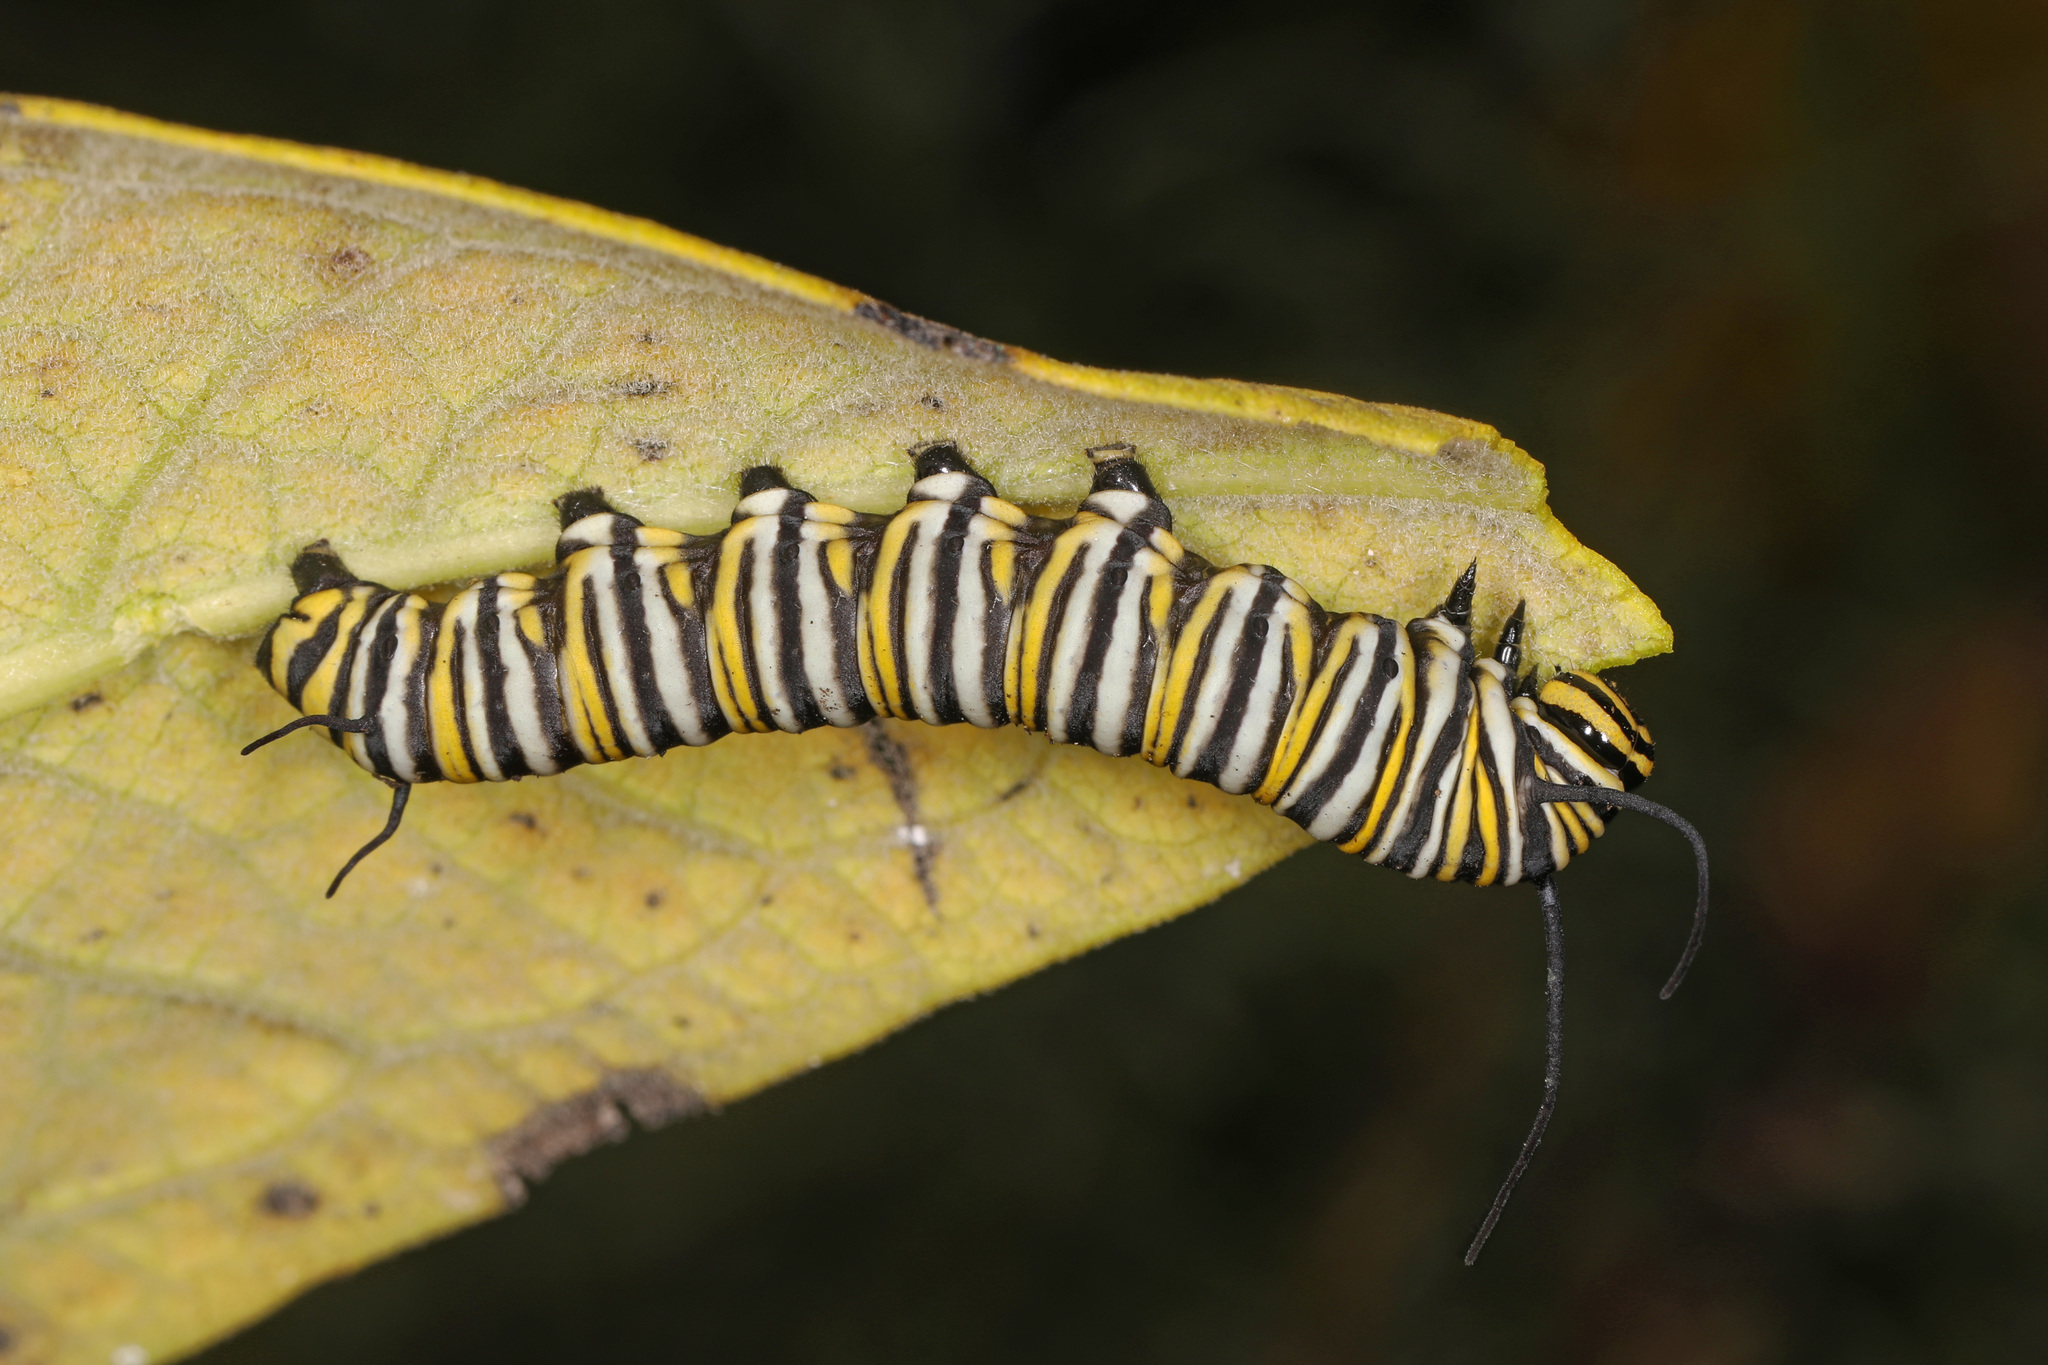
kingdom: Animalia
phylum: Arthropoda
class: Insecta
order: Lepidoptera
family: Nymphalidae
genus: Danaus
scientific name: Danaus plexippus
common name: Monarch
